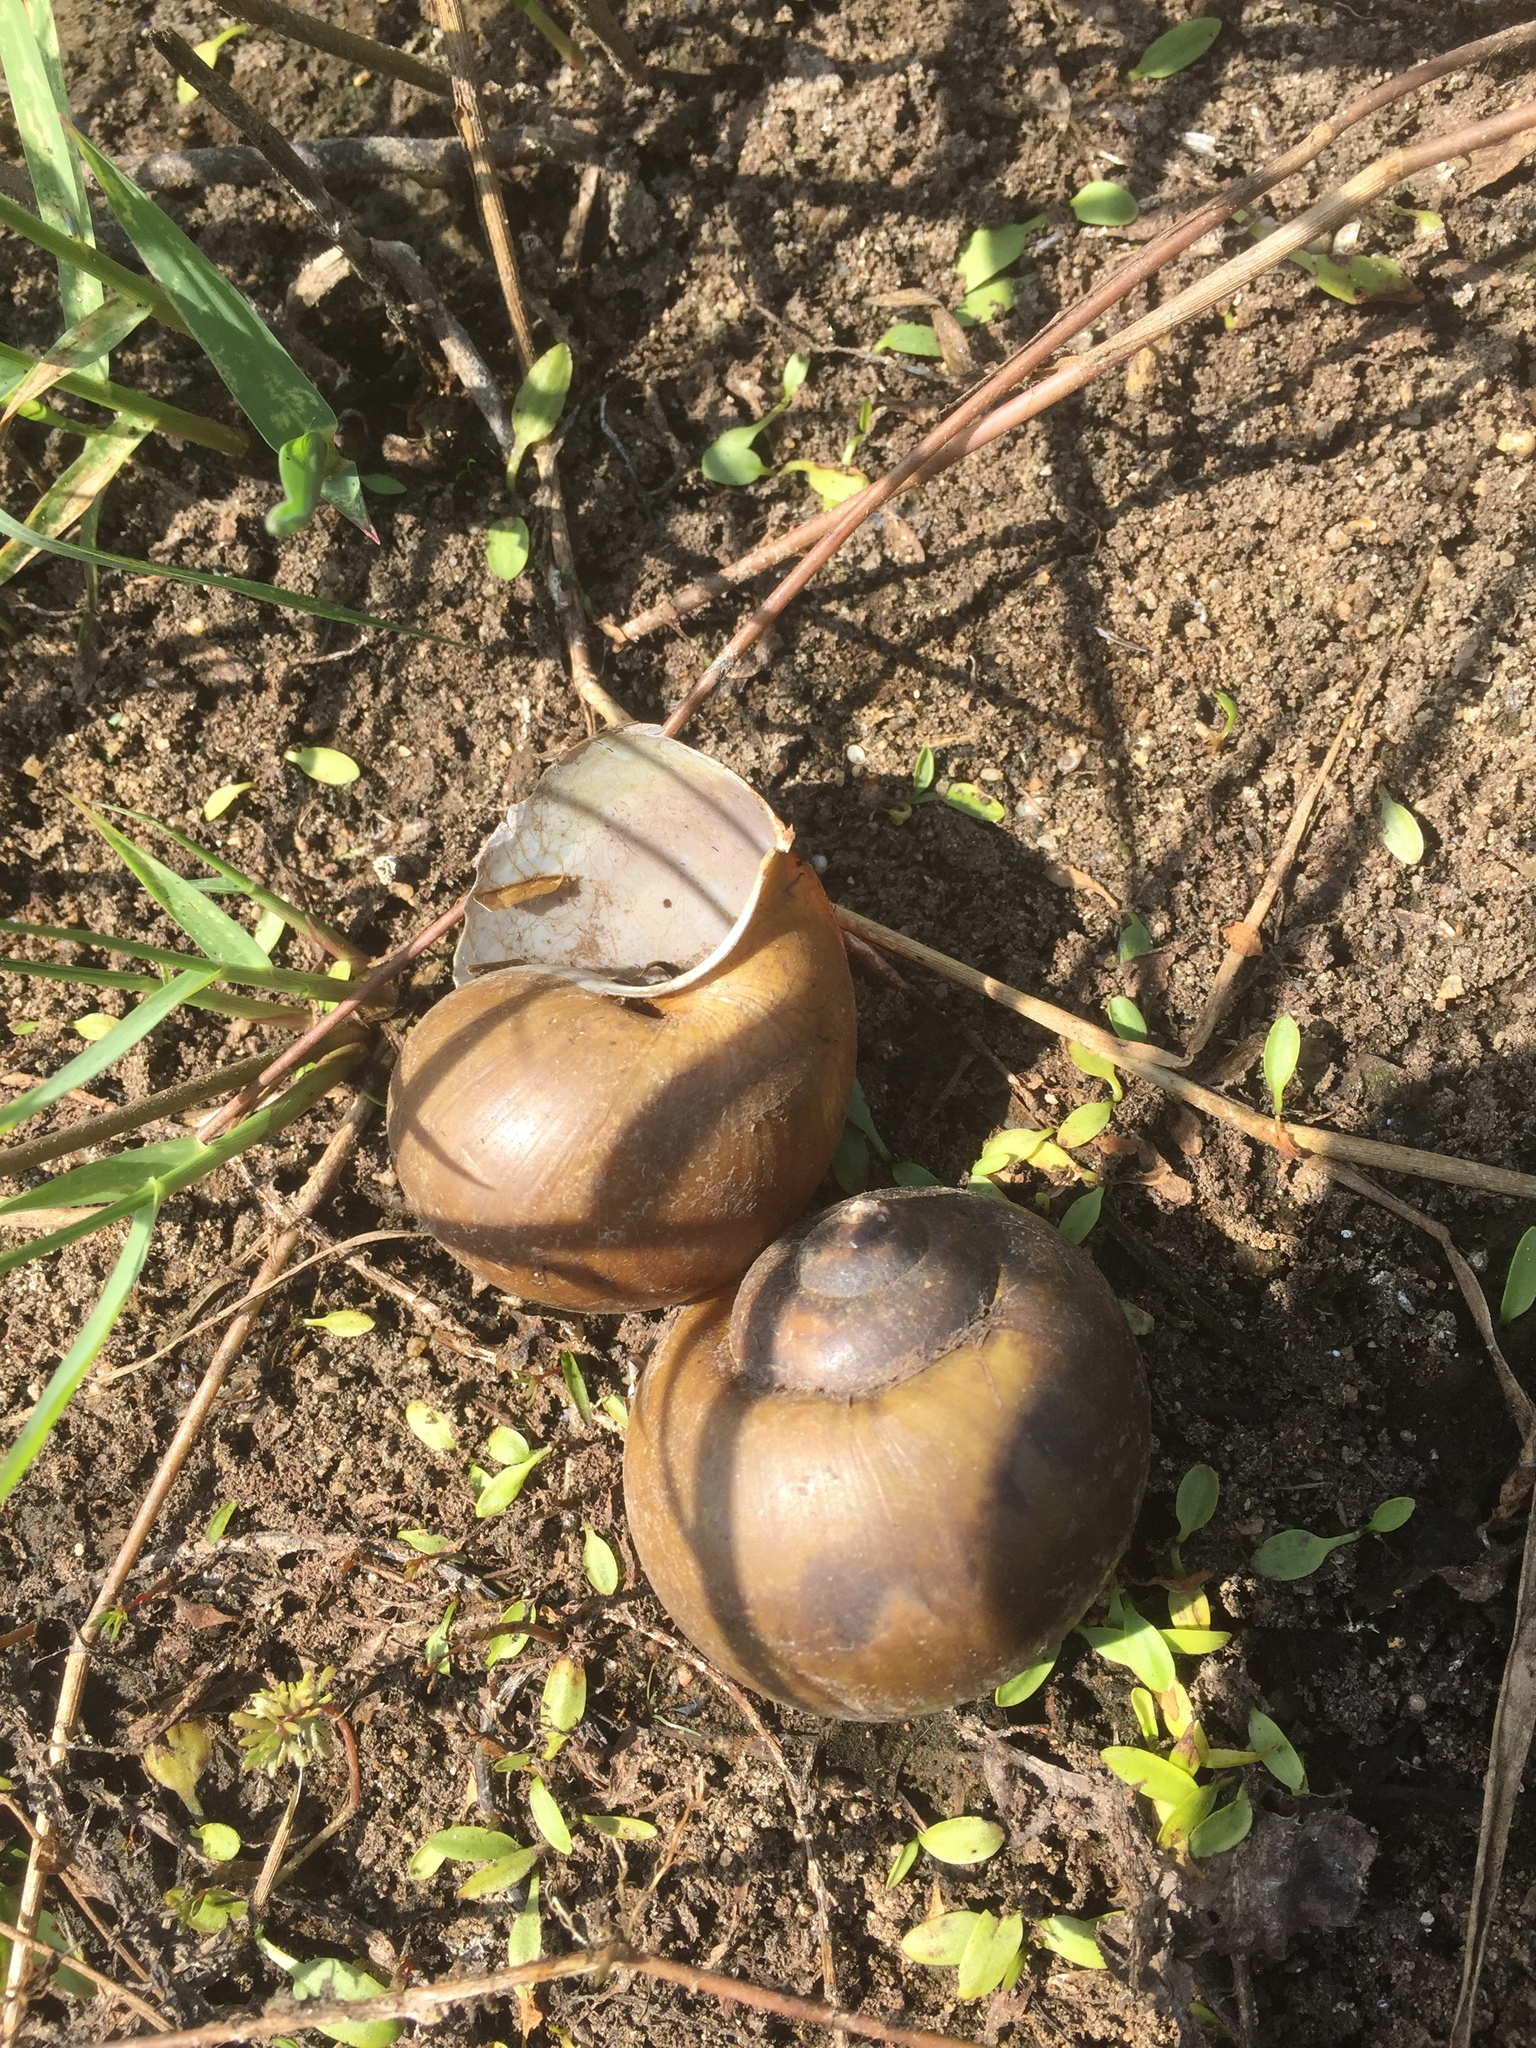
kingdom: Animalia
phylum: Mollusca
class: Gastropoda
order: Architaenioglossa
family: Ampullariidae
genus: Pila
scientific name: Pila globosa
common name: Common indian apple snail
